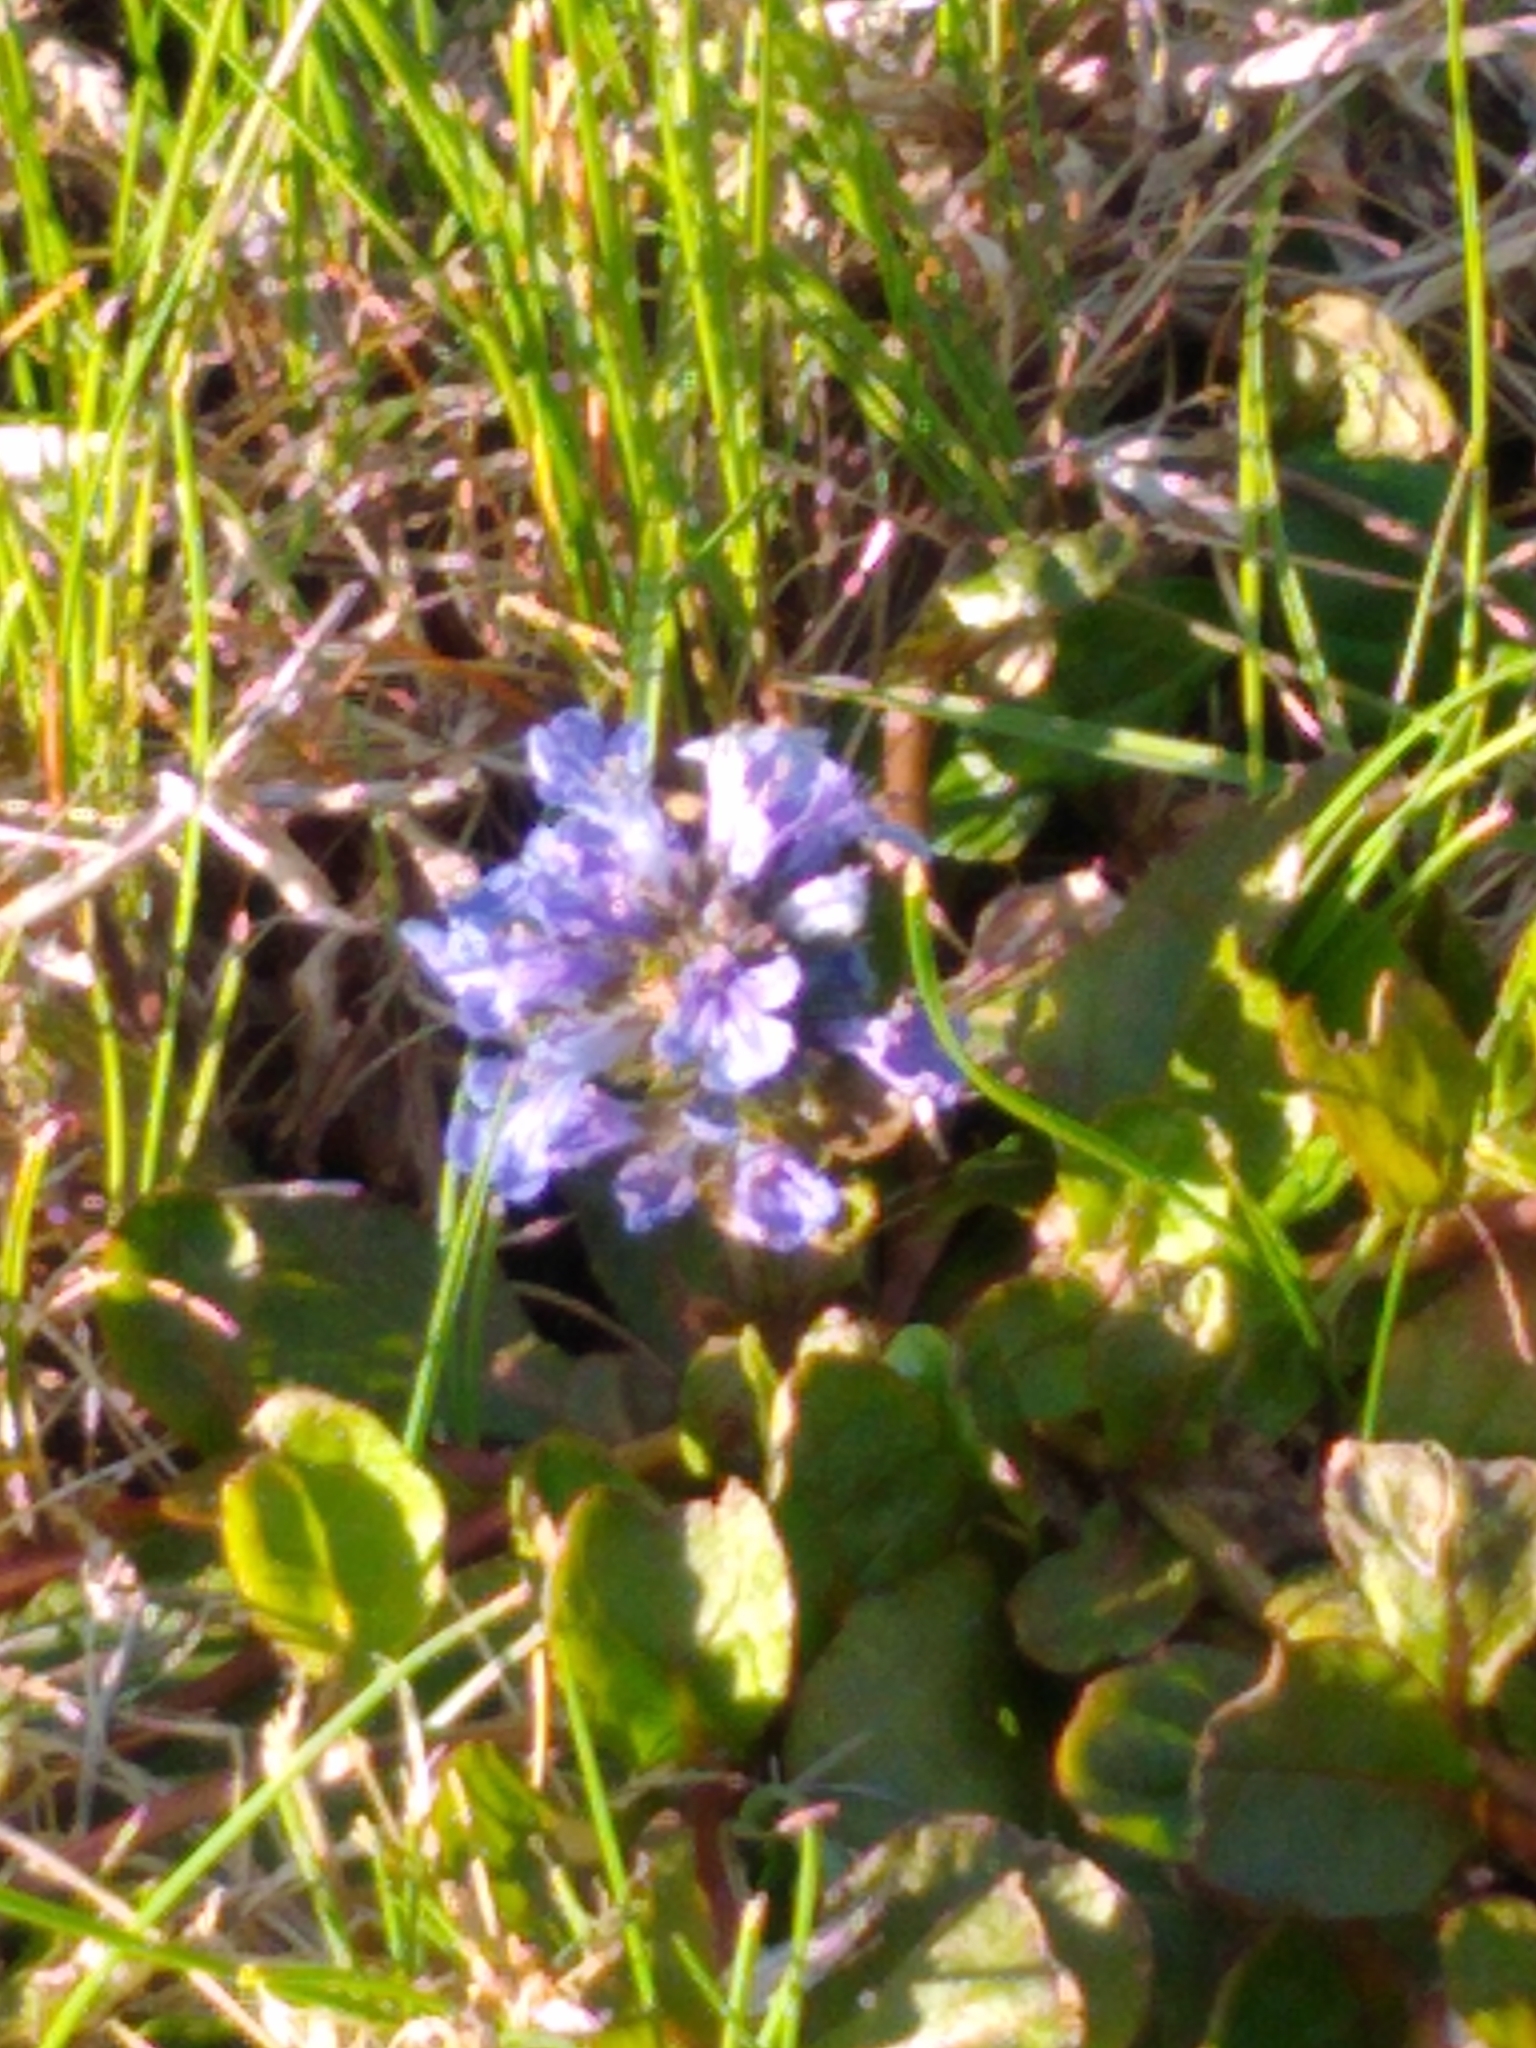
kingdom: Plantae
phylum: Tracheophyta
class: Magnoliopsida
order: Lamiales
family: Lamiaceae
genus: Ajuga
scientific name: Ajuga reptans
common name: Bugle
